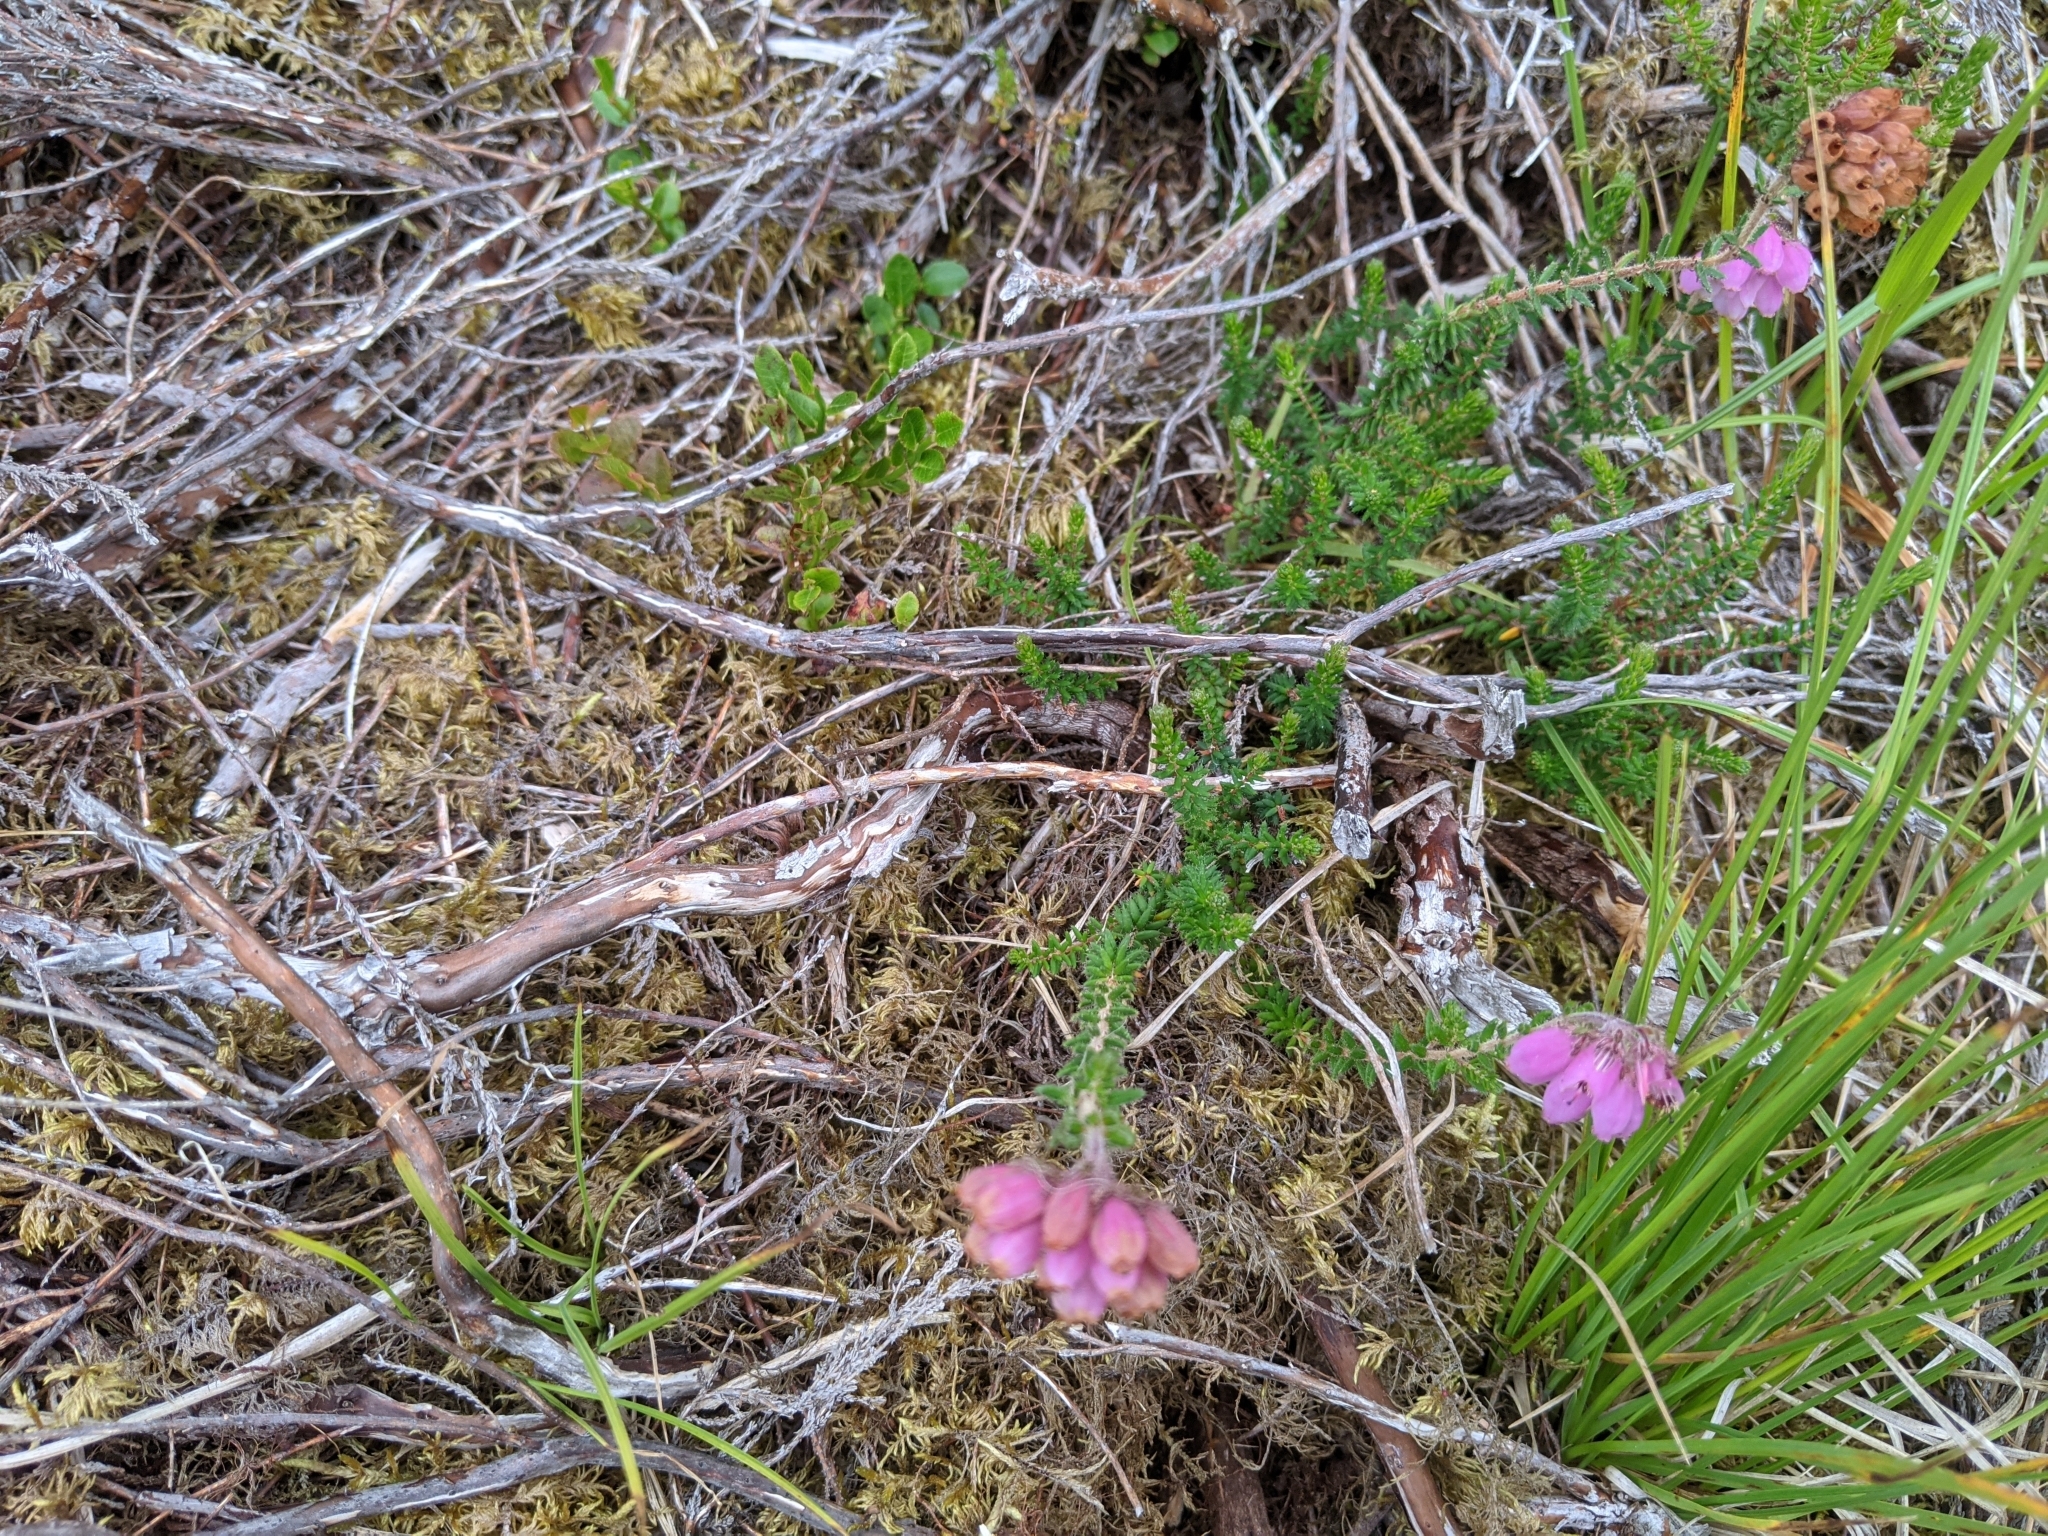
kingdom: Plantae
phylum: Tracheophyta
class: Magnoliopsida
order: Ericales
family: Ericaceae
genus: Erica
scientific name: Erica tetralix
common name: Cross-leaved heath
